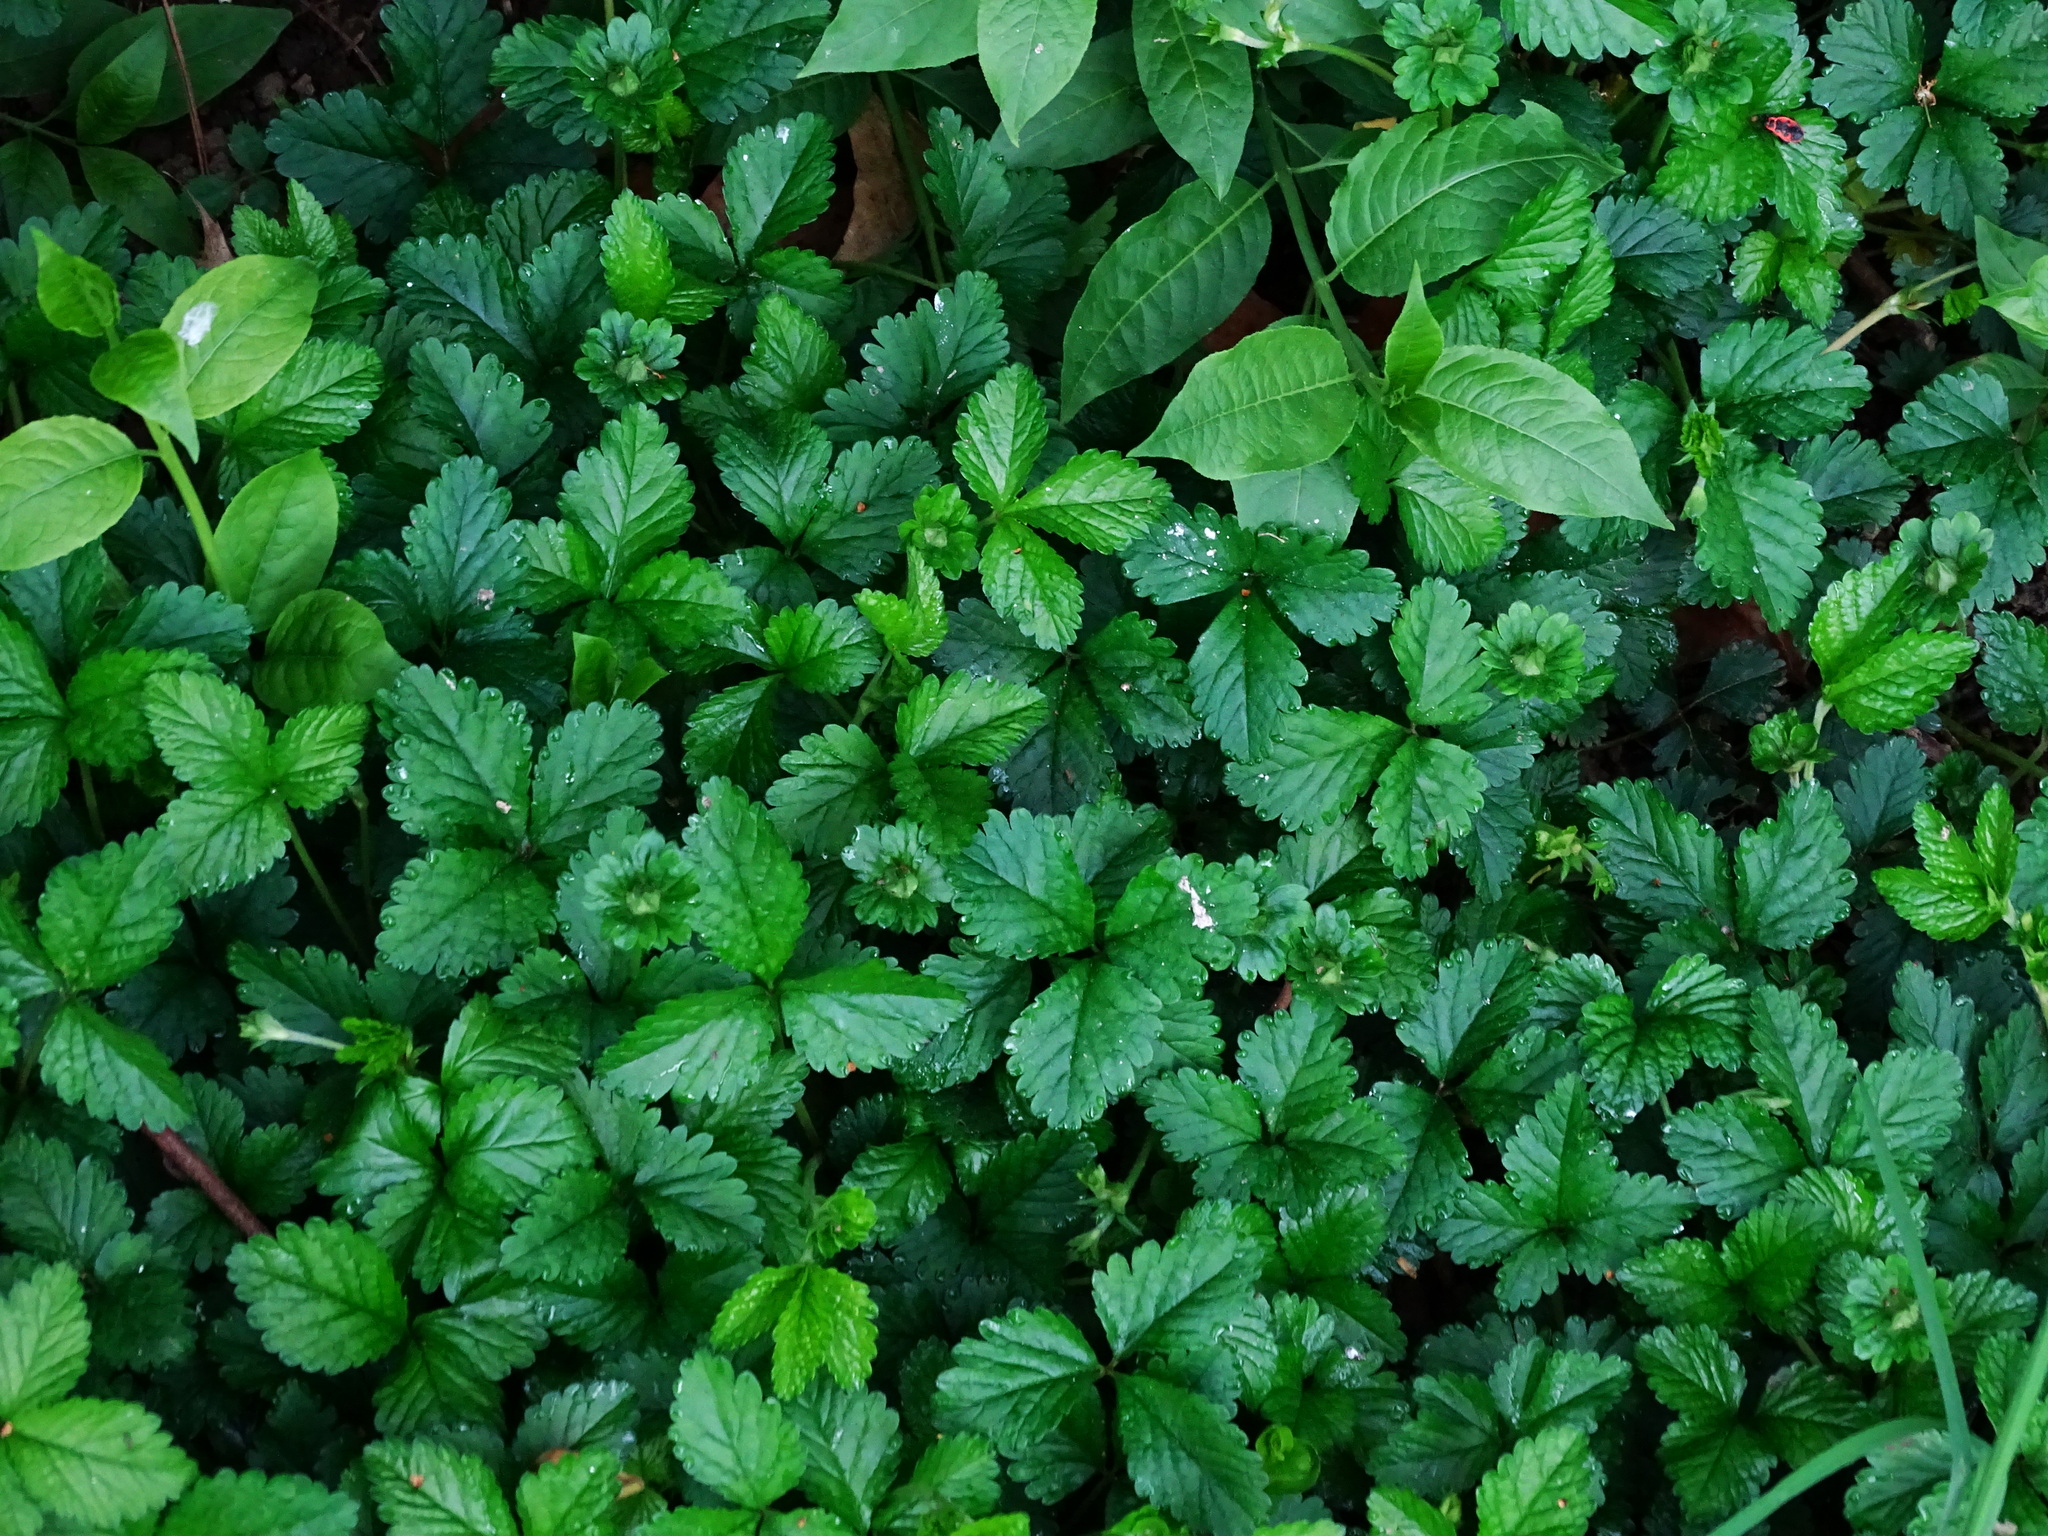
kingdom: Plantae
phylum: Tracheophyta
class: Magnoliopsida
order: Rosales
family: Rosaceae
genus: Potentilla
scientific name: Potentilla indica
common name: Yellow-flowered strawberry
